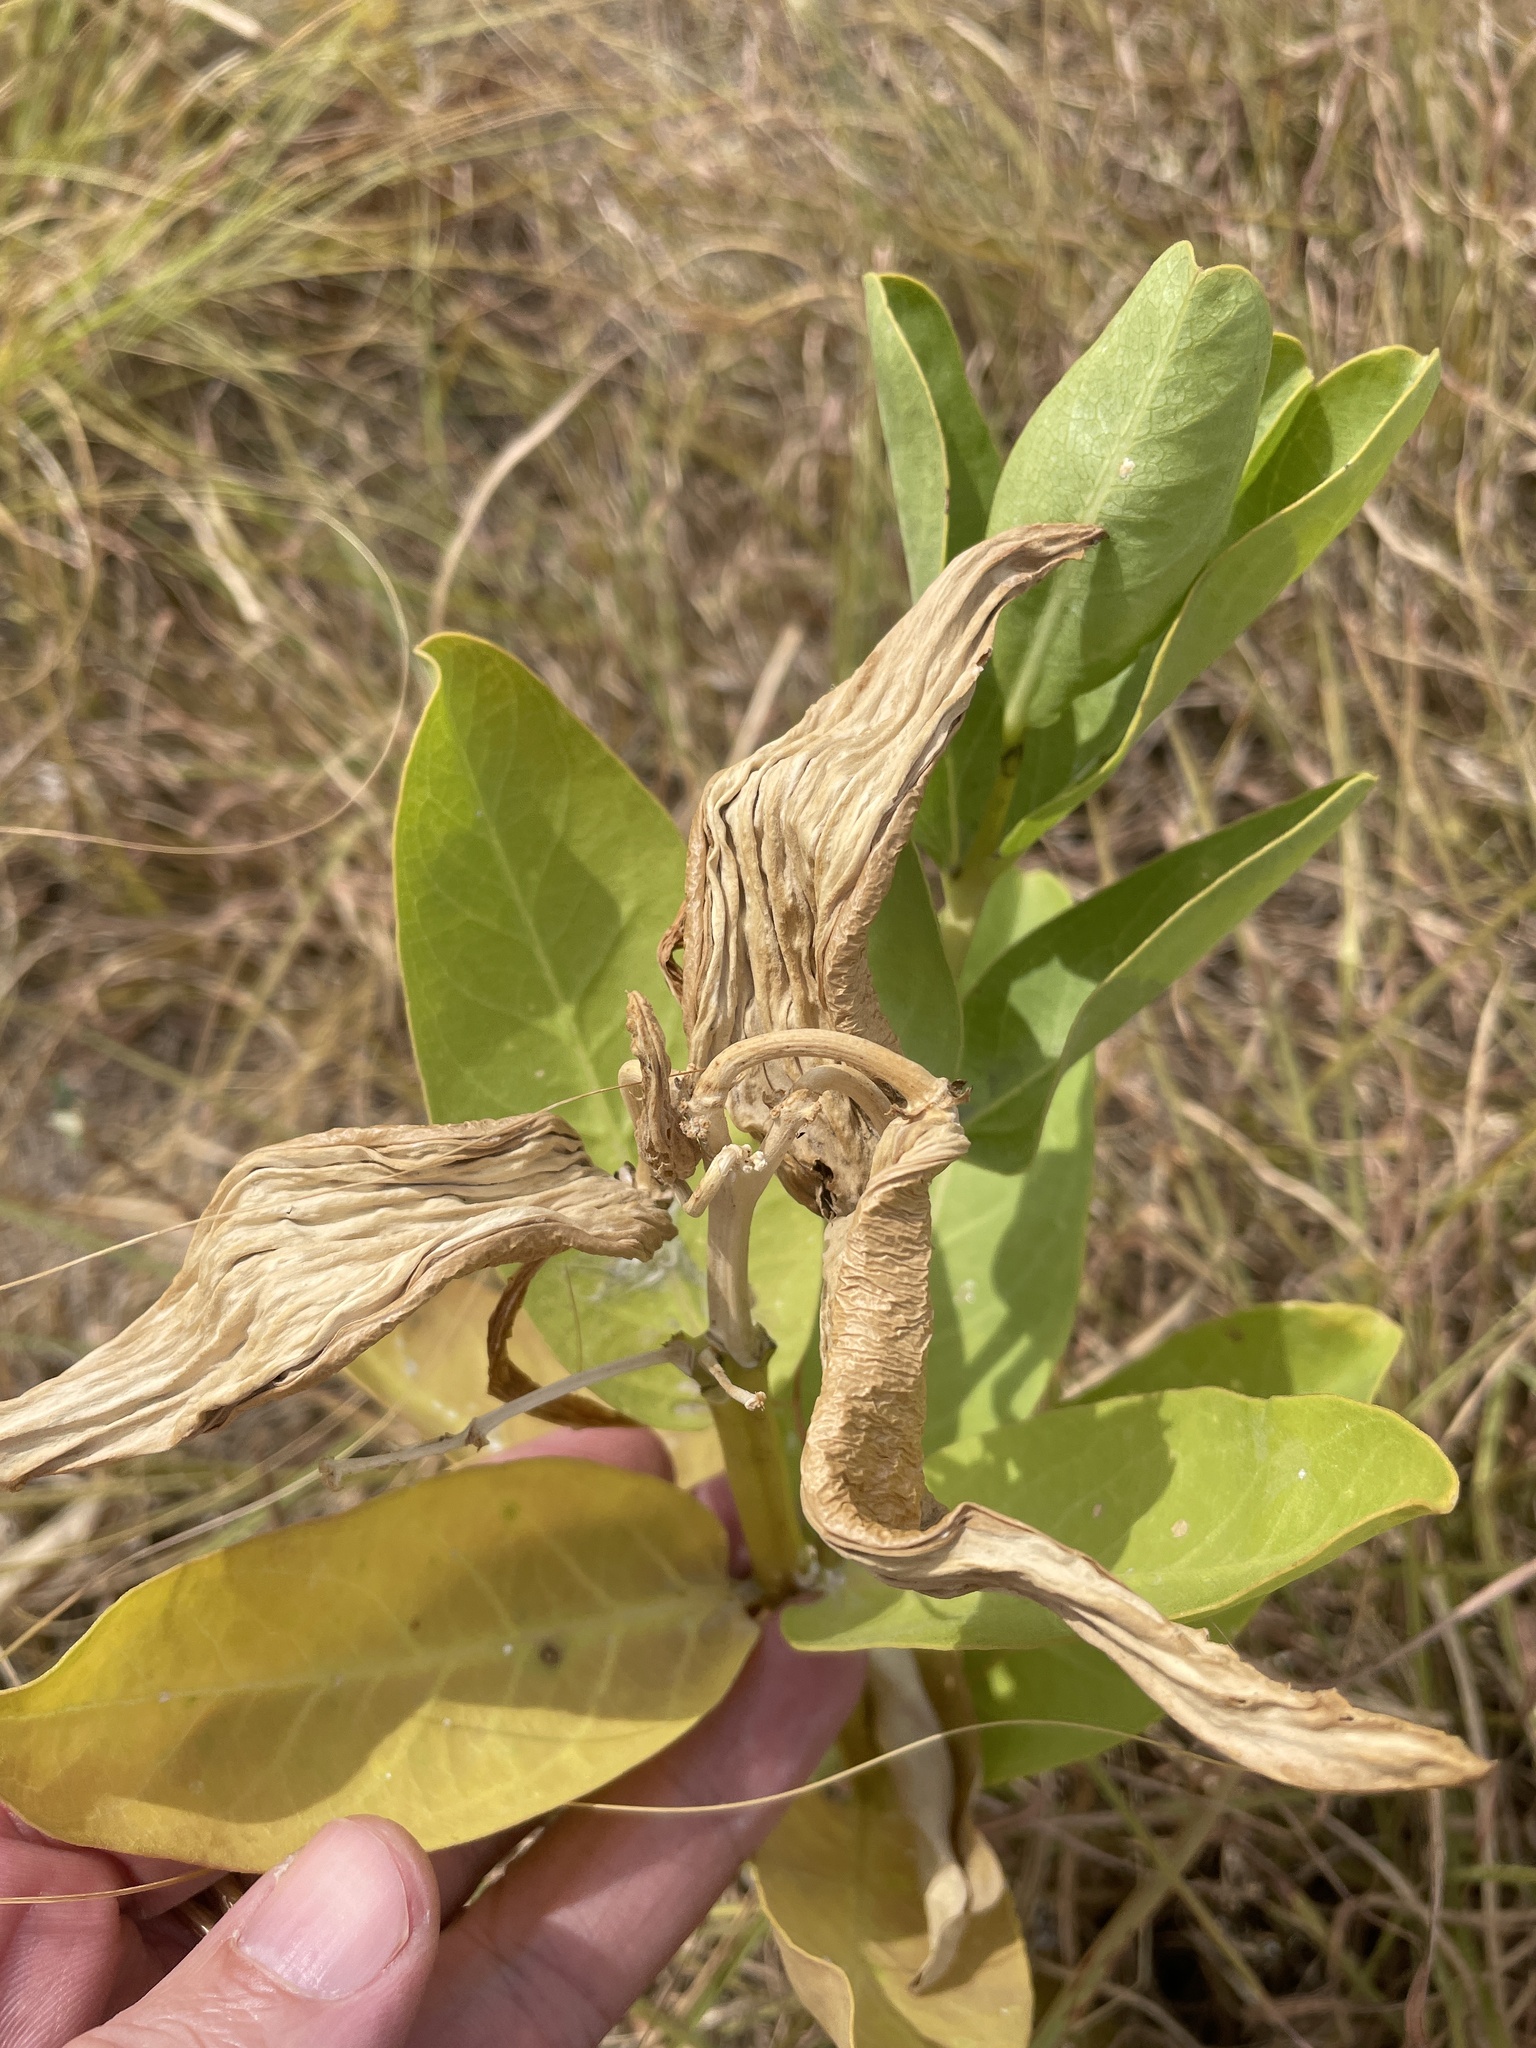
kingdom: Plantae
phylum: Tracheophyta
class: Magnoliopsida
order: Gentianales
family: Apocynaceae
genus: Asclepias
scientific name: Asclepias viridis
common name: Antelope-horns
